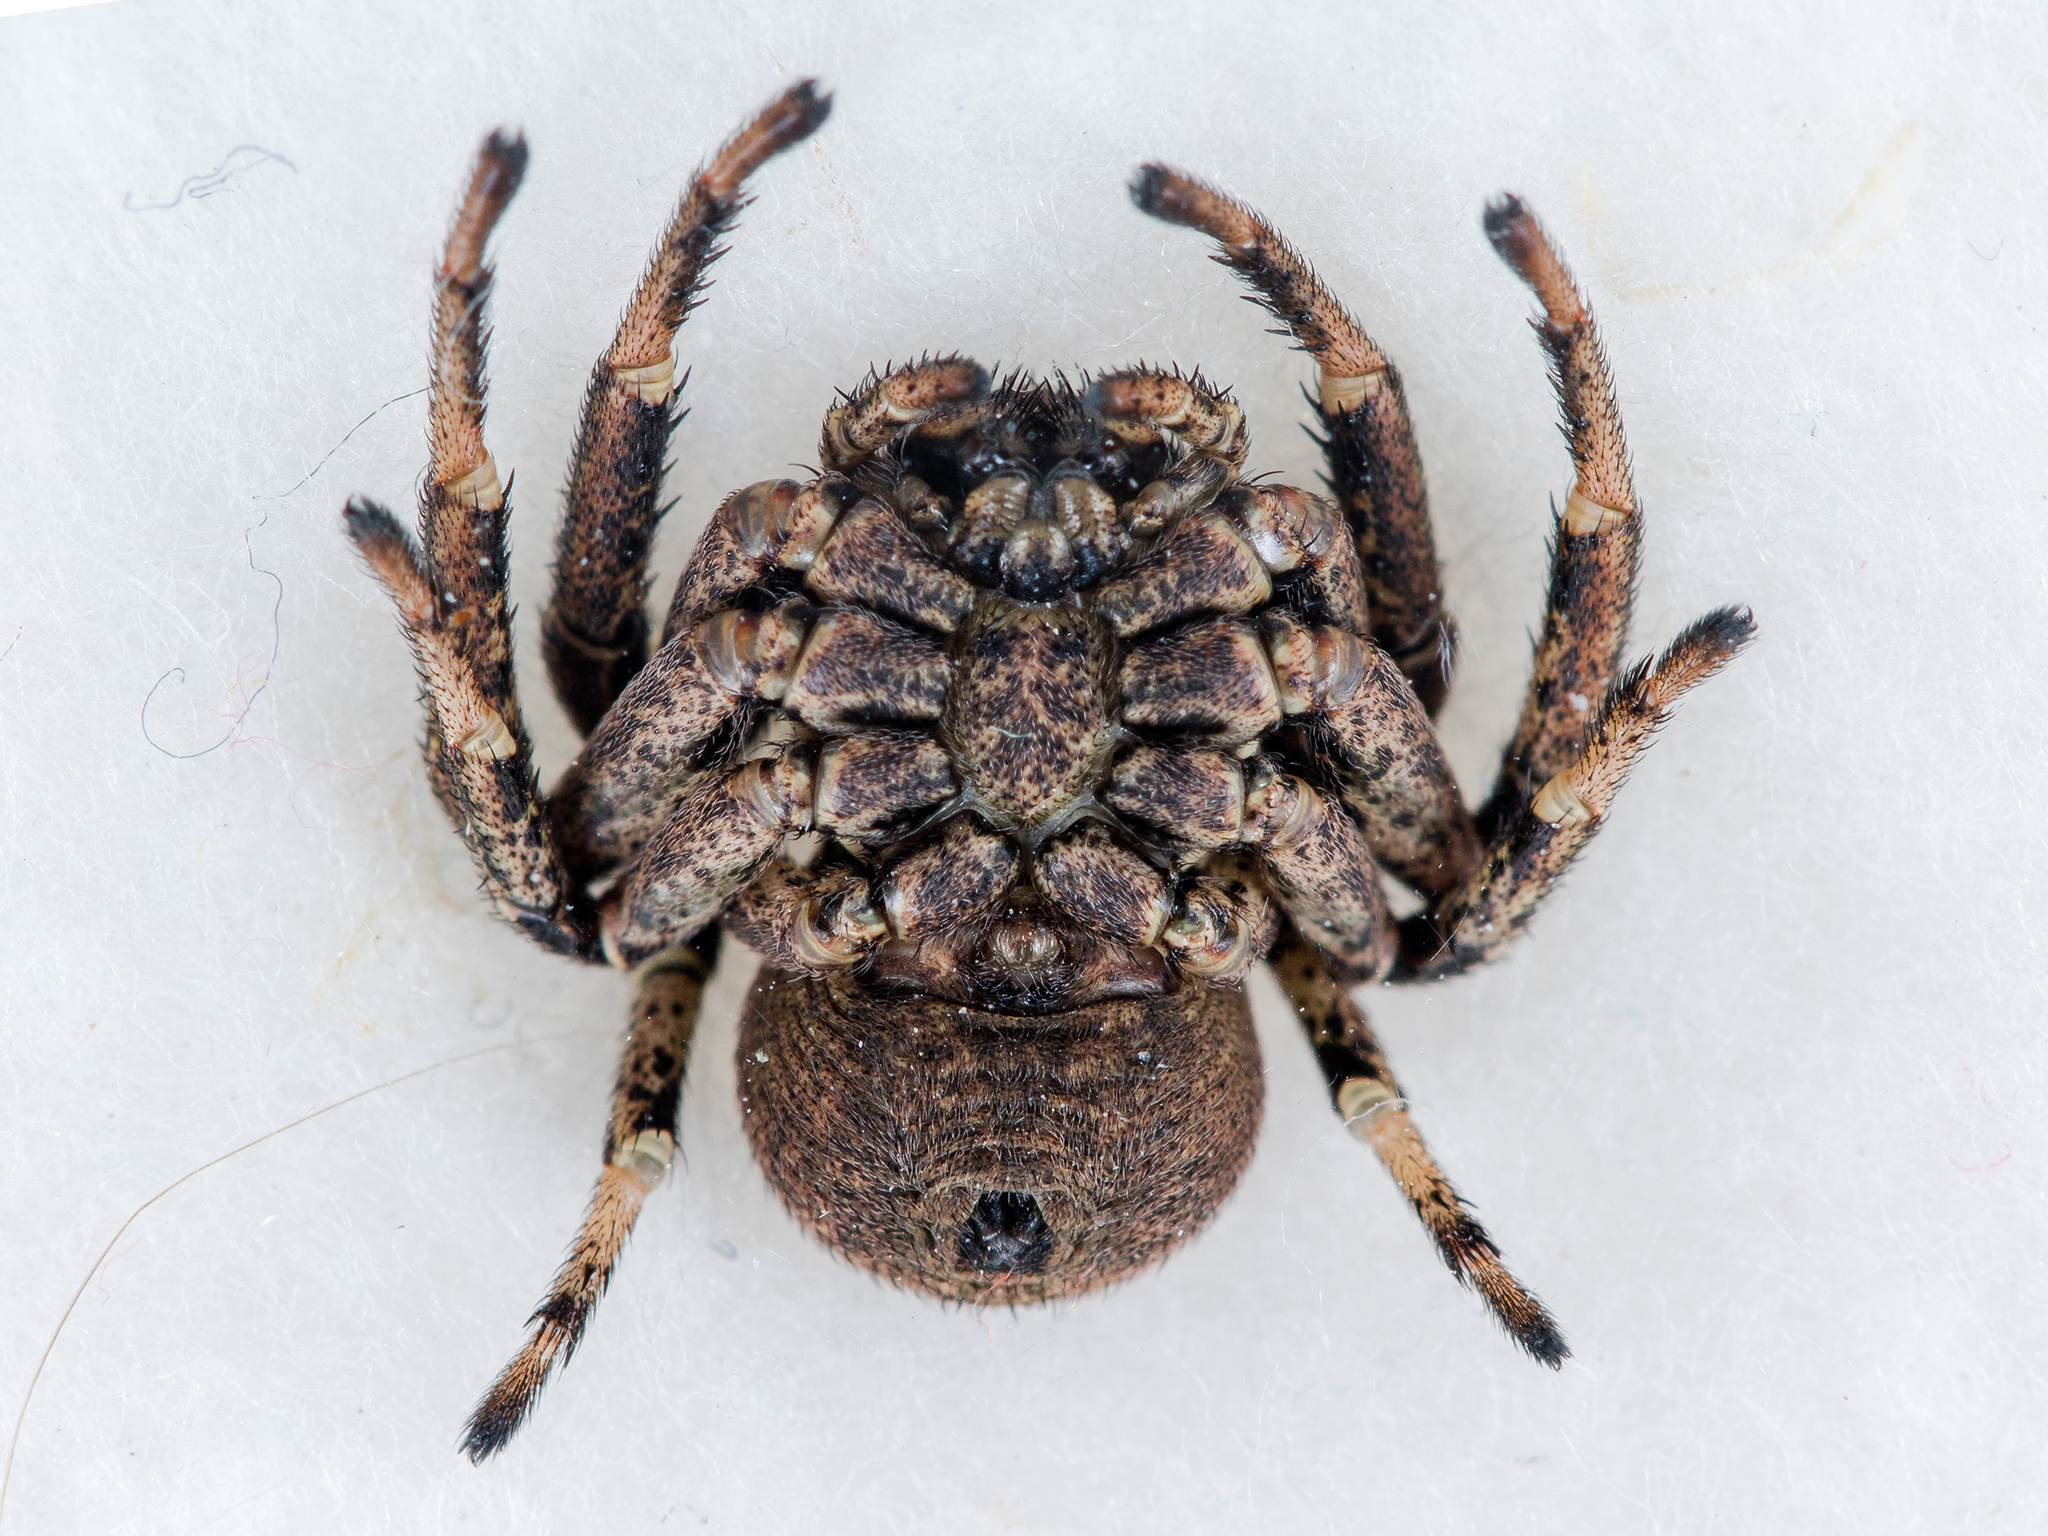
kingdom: Animalia
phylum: Arthropoda
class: Arachnida
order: Araneae
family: Thomisidae
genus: Bassaniodes
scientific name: Bassaniodes turlan
